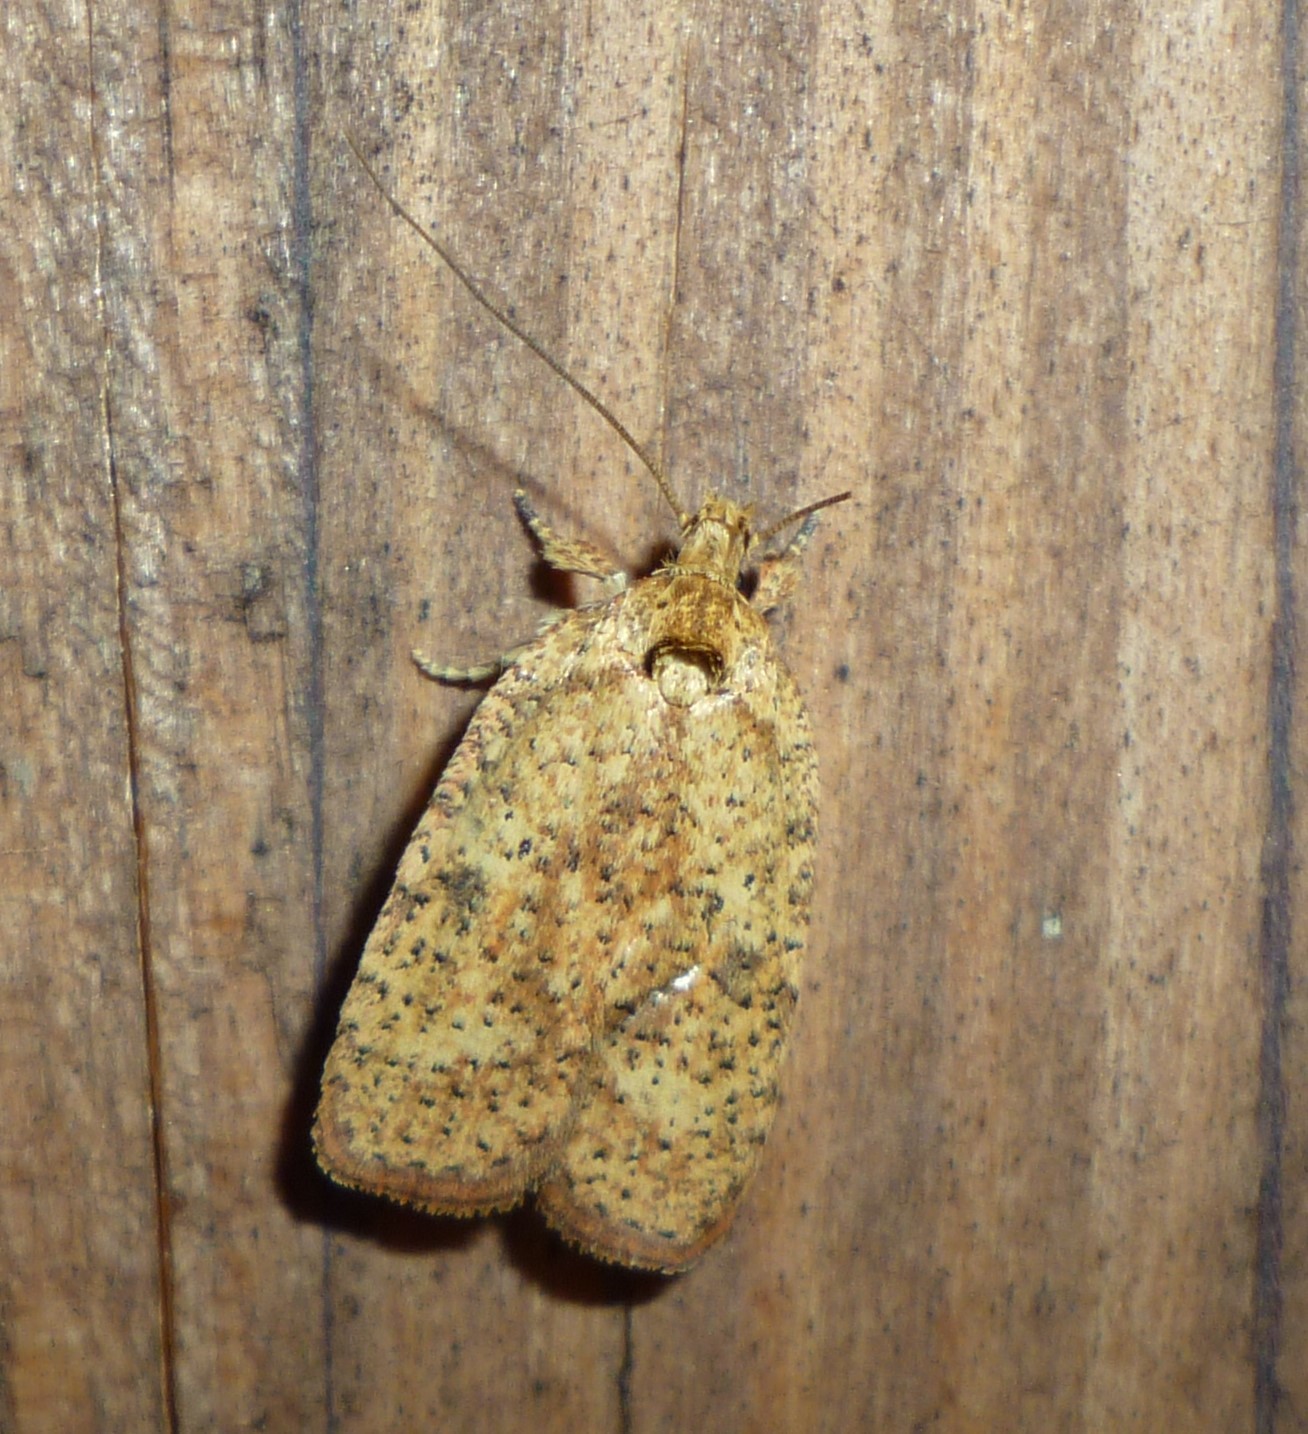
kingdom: Animalia
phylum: Arthropoda
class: Insecta
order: Lepidoptera
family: Depressariidae
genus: Agonopterix
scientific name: Agonopterix thelmae
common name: Thelma's agonopterix moth
